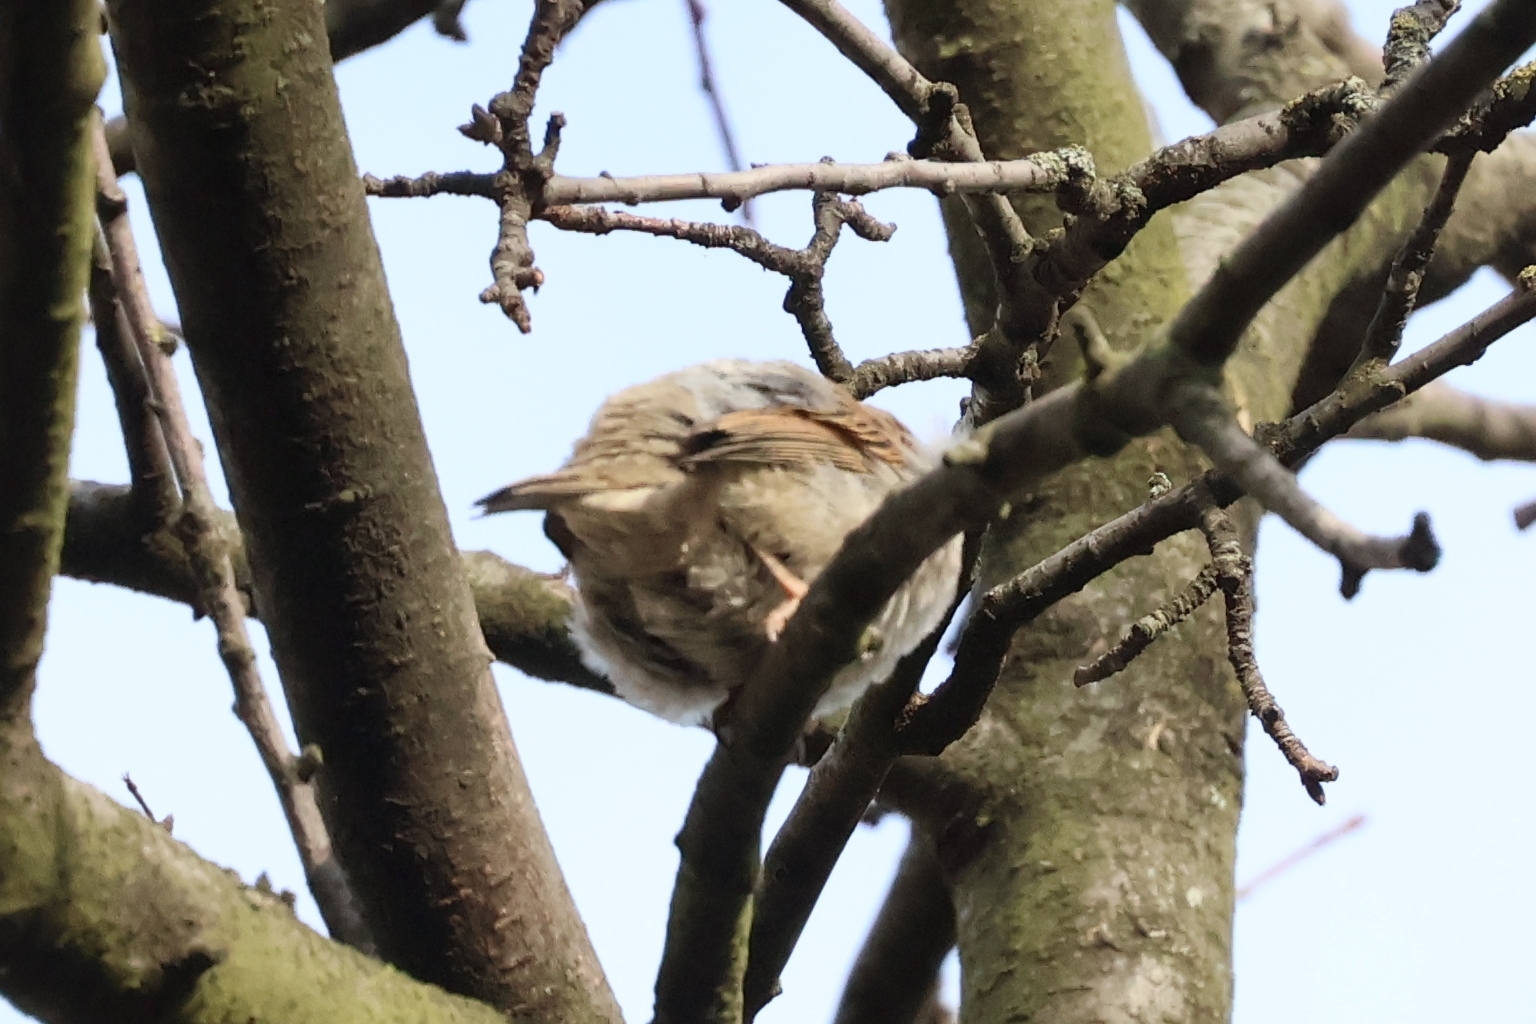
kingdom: Animalia
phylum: Chordata
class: Aves
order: Passeriformes
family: Passeridae
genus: Passer
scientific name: Passer domesticus
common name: House sparrow
